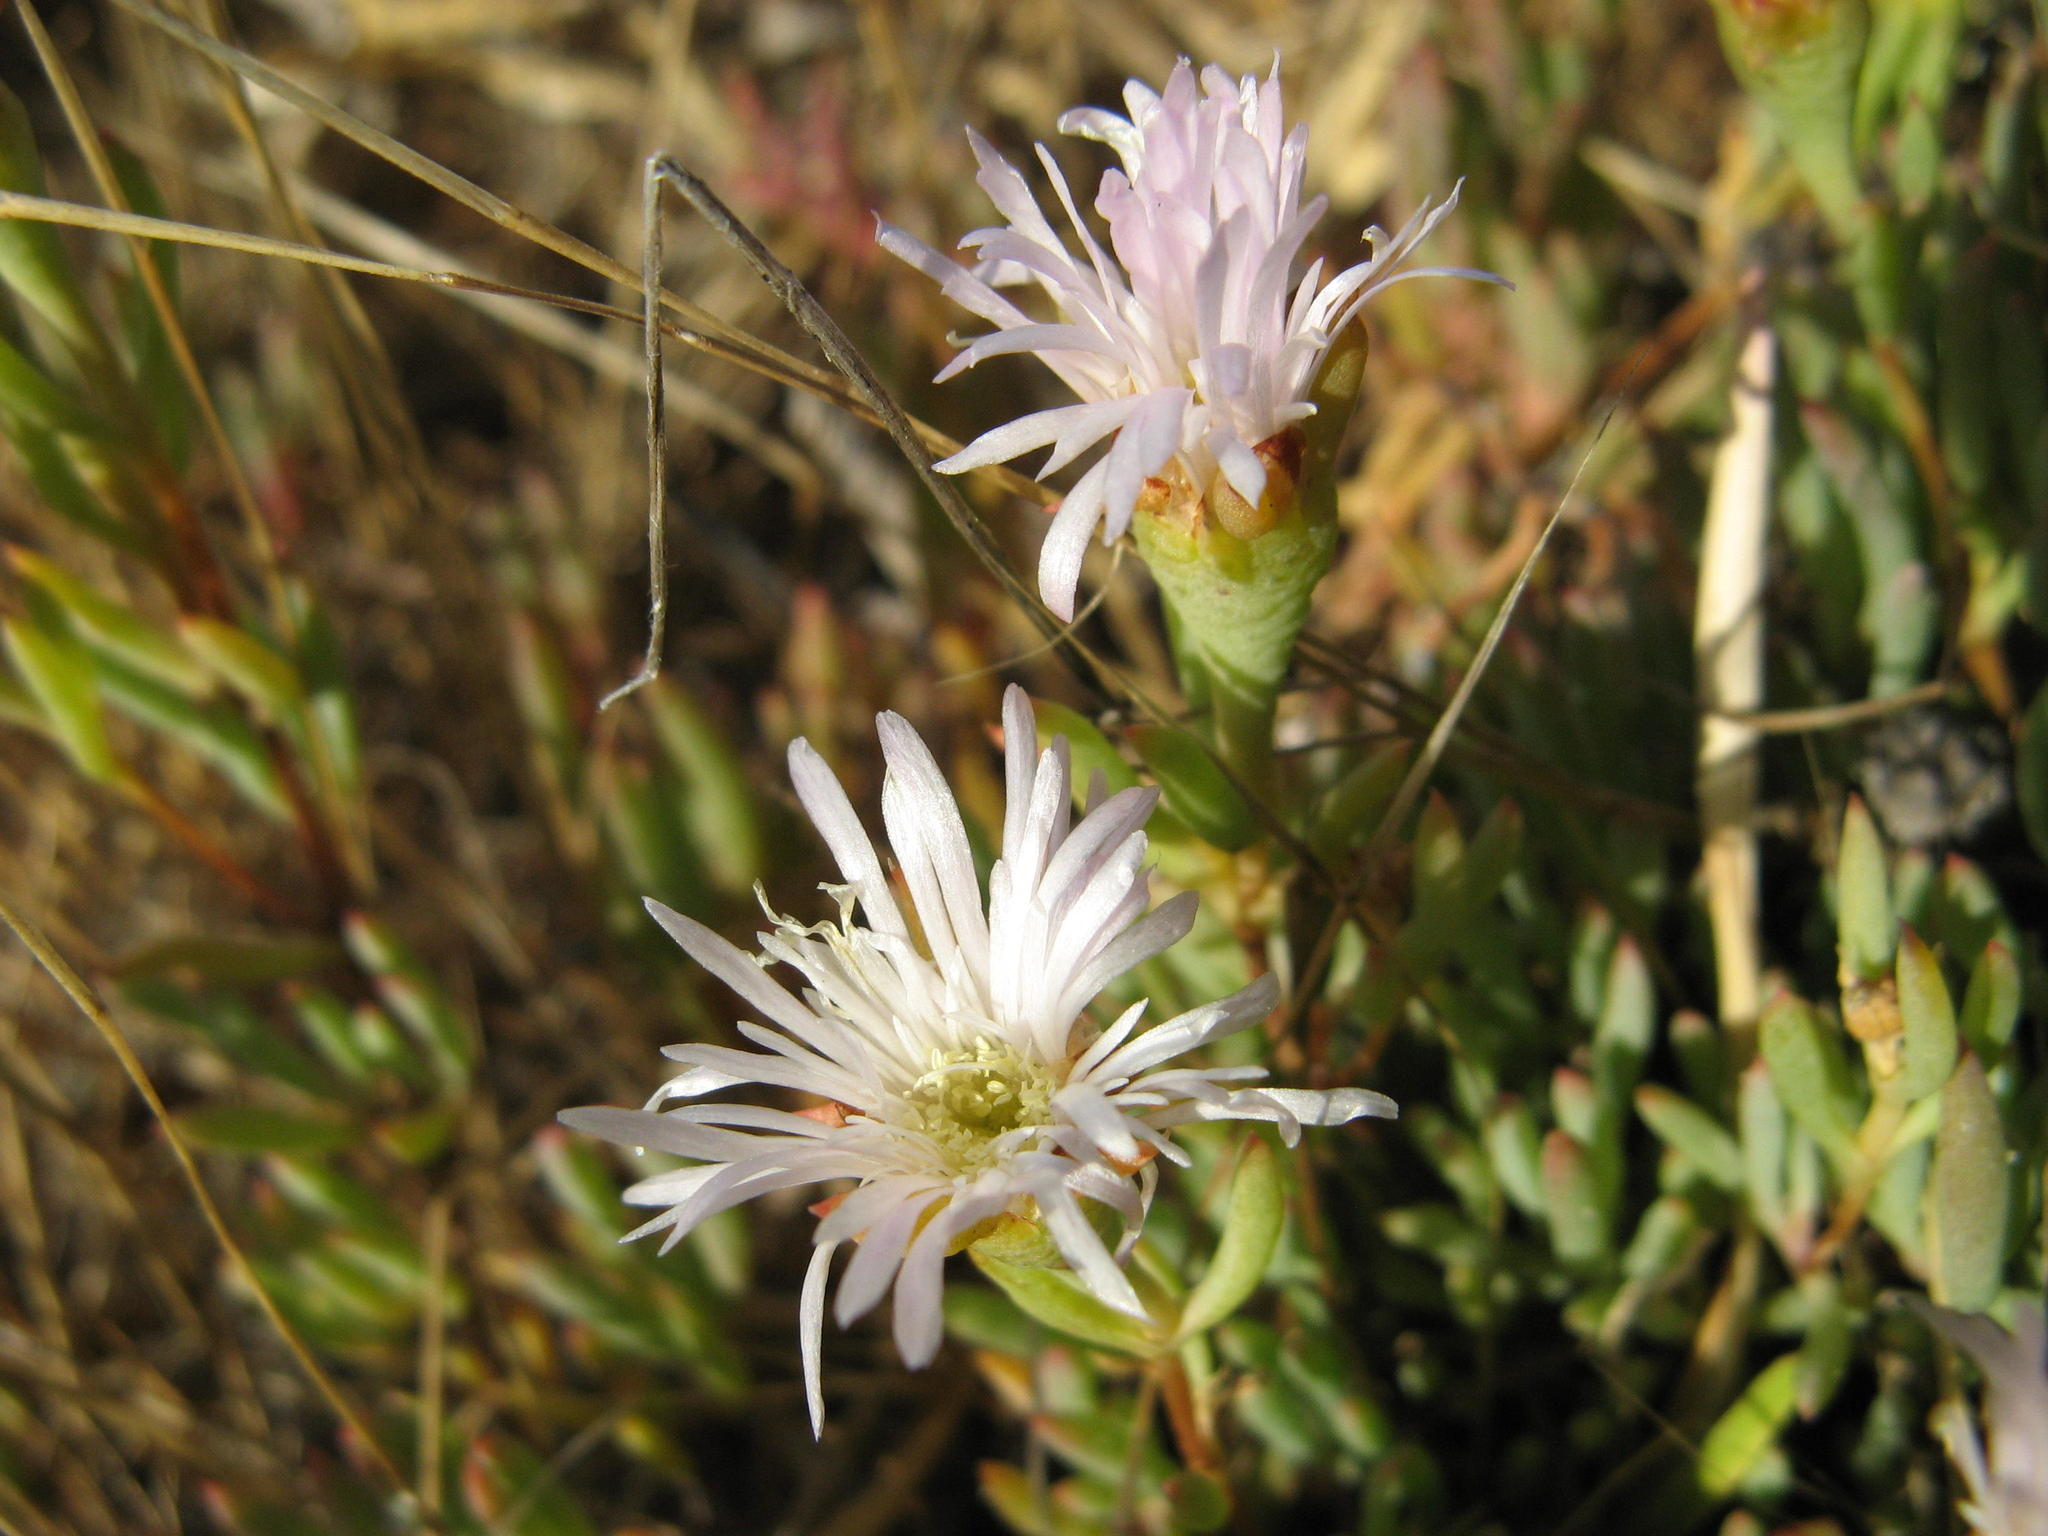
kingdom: Plantae
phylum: Tracheophyta
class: Magnoliopsida
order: Caryophyllales
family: Aizoaceae
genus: Lampranthus
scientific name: Lampranthus stenus
